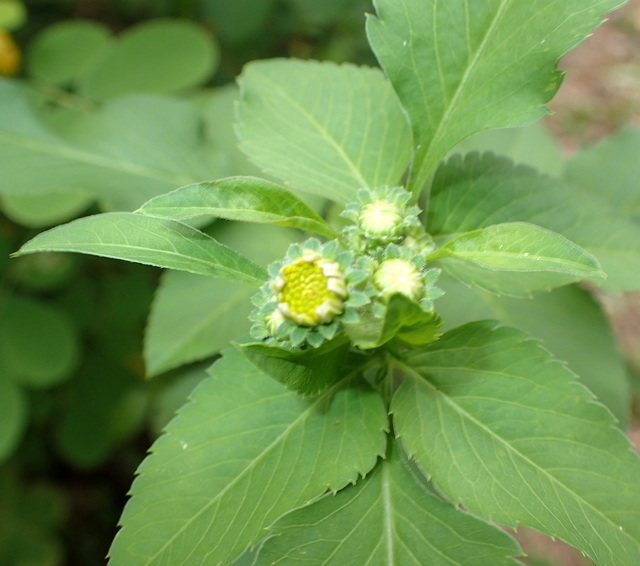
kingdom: Plantae
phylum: Tracheophyta
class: Magnoliopsida
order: Asterales
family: Asteraceae
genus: Bidens
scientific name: Bidens alba
